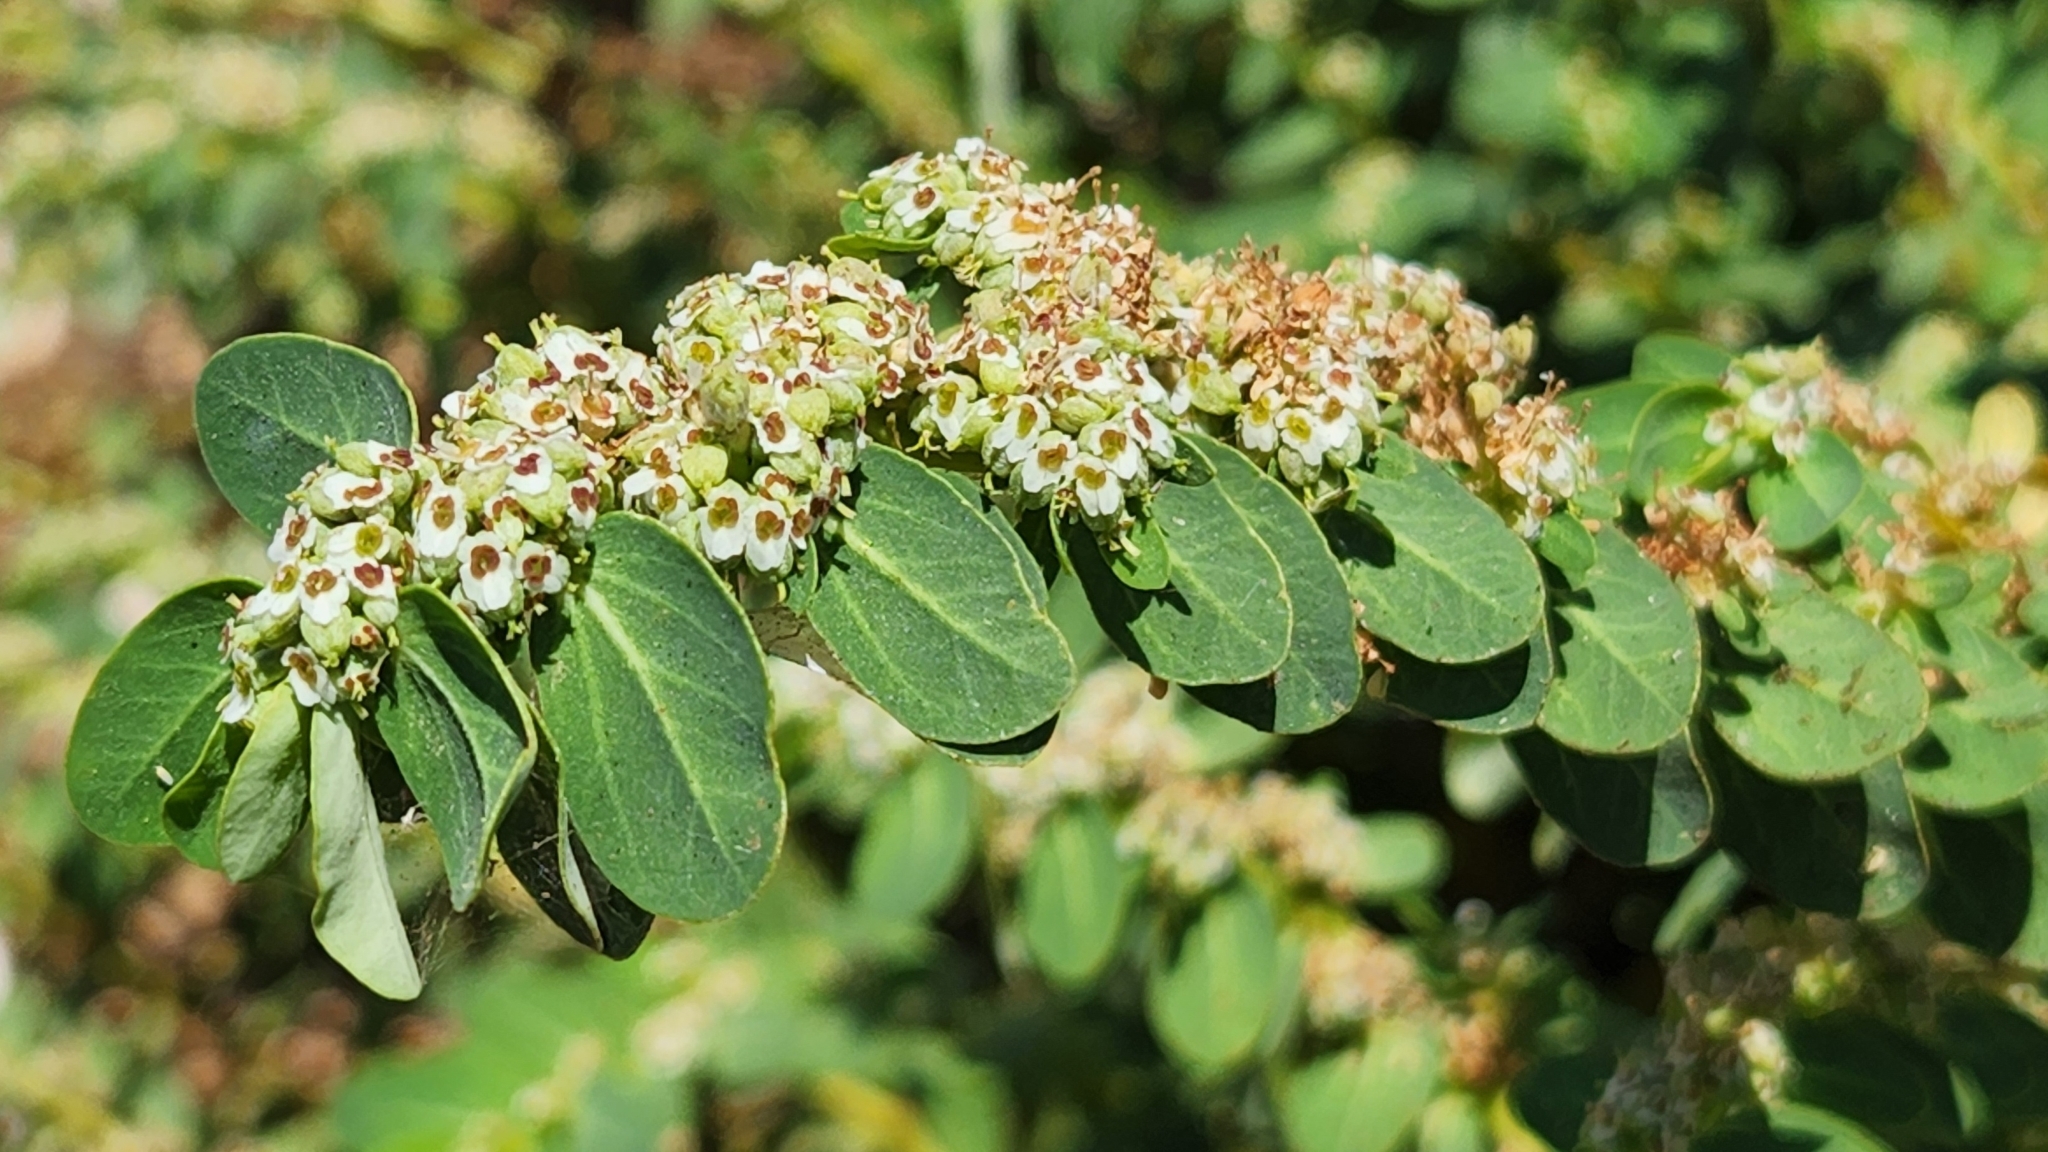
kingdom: Plantae
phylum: Tracheophyta
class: Magnoliopsida
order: Malpighiales
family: Euphorbiaceae
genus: Euphorbia
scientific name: Euphorbia anthonyi
